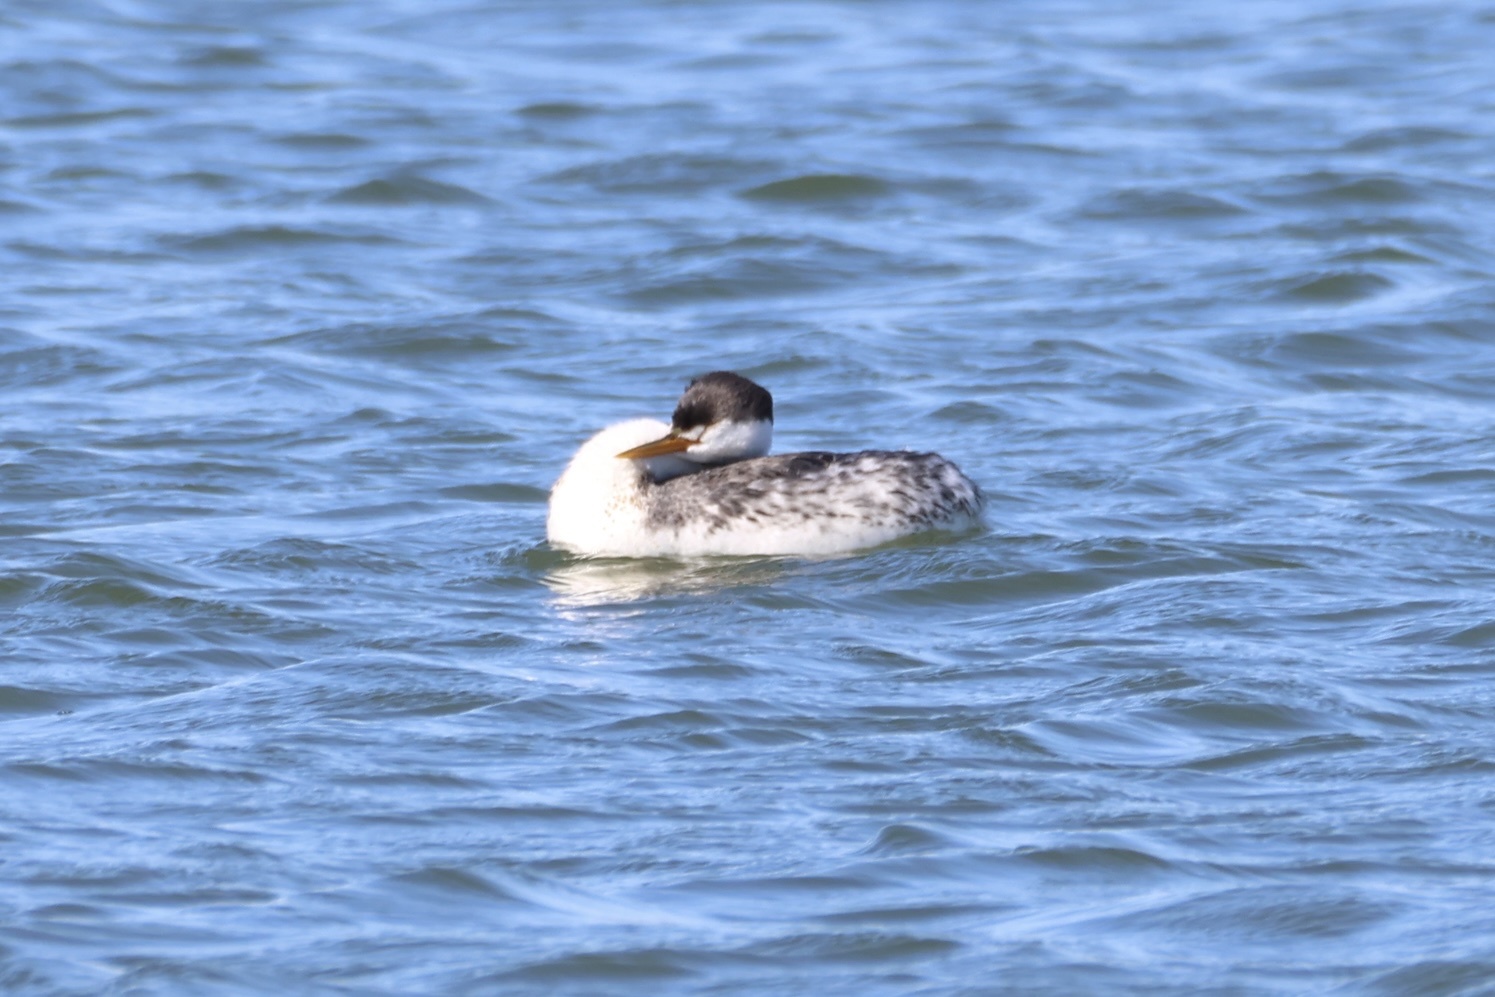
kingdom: Animalia
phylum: Chordata
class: Aves
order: Podicipediformes
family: Podicipedidae
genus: Aechmophorus
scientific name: Aechmophorus clarkii
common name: Clark's grebe
